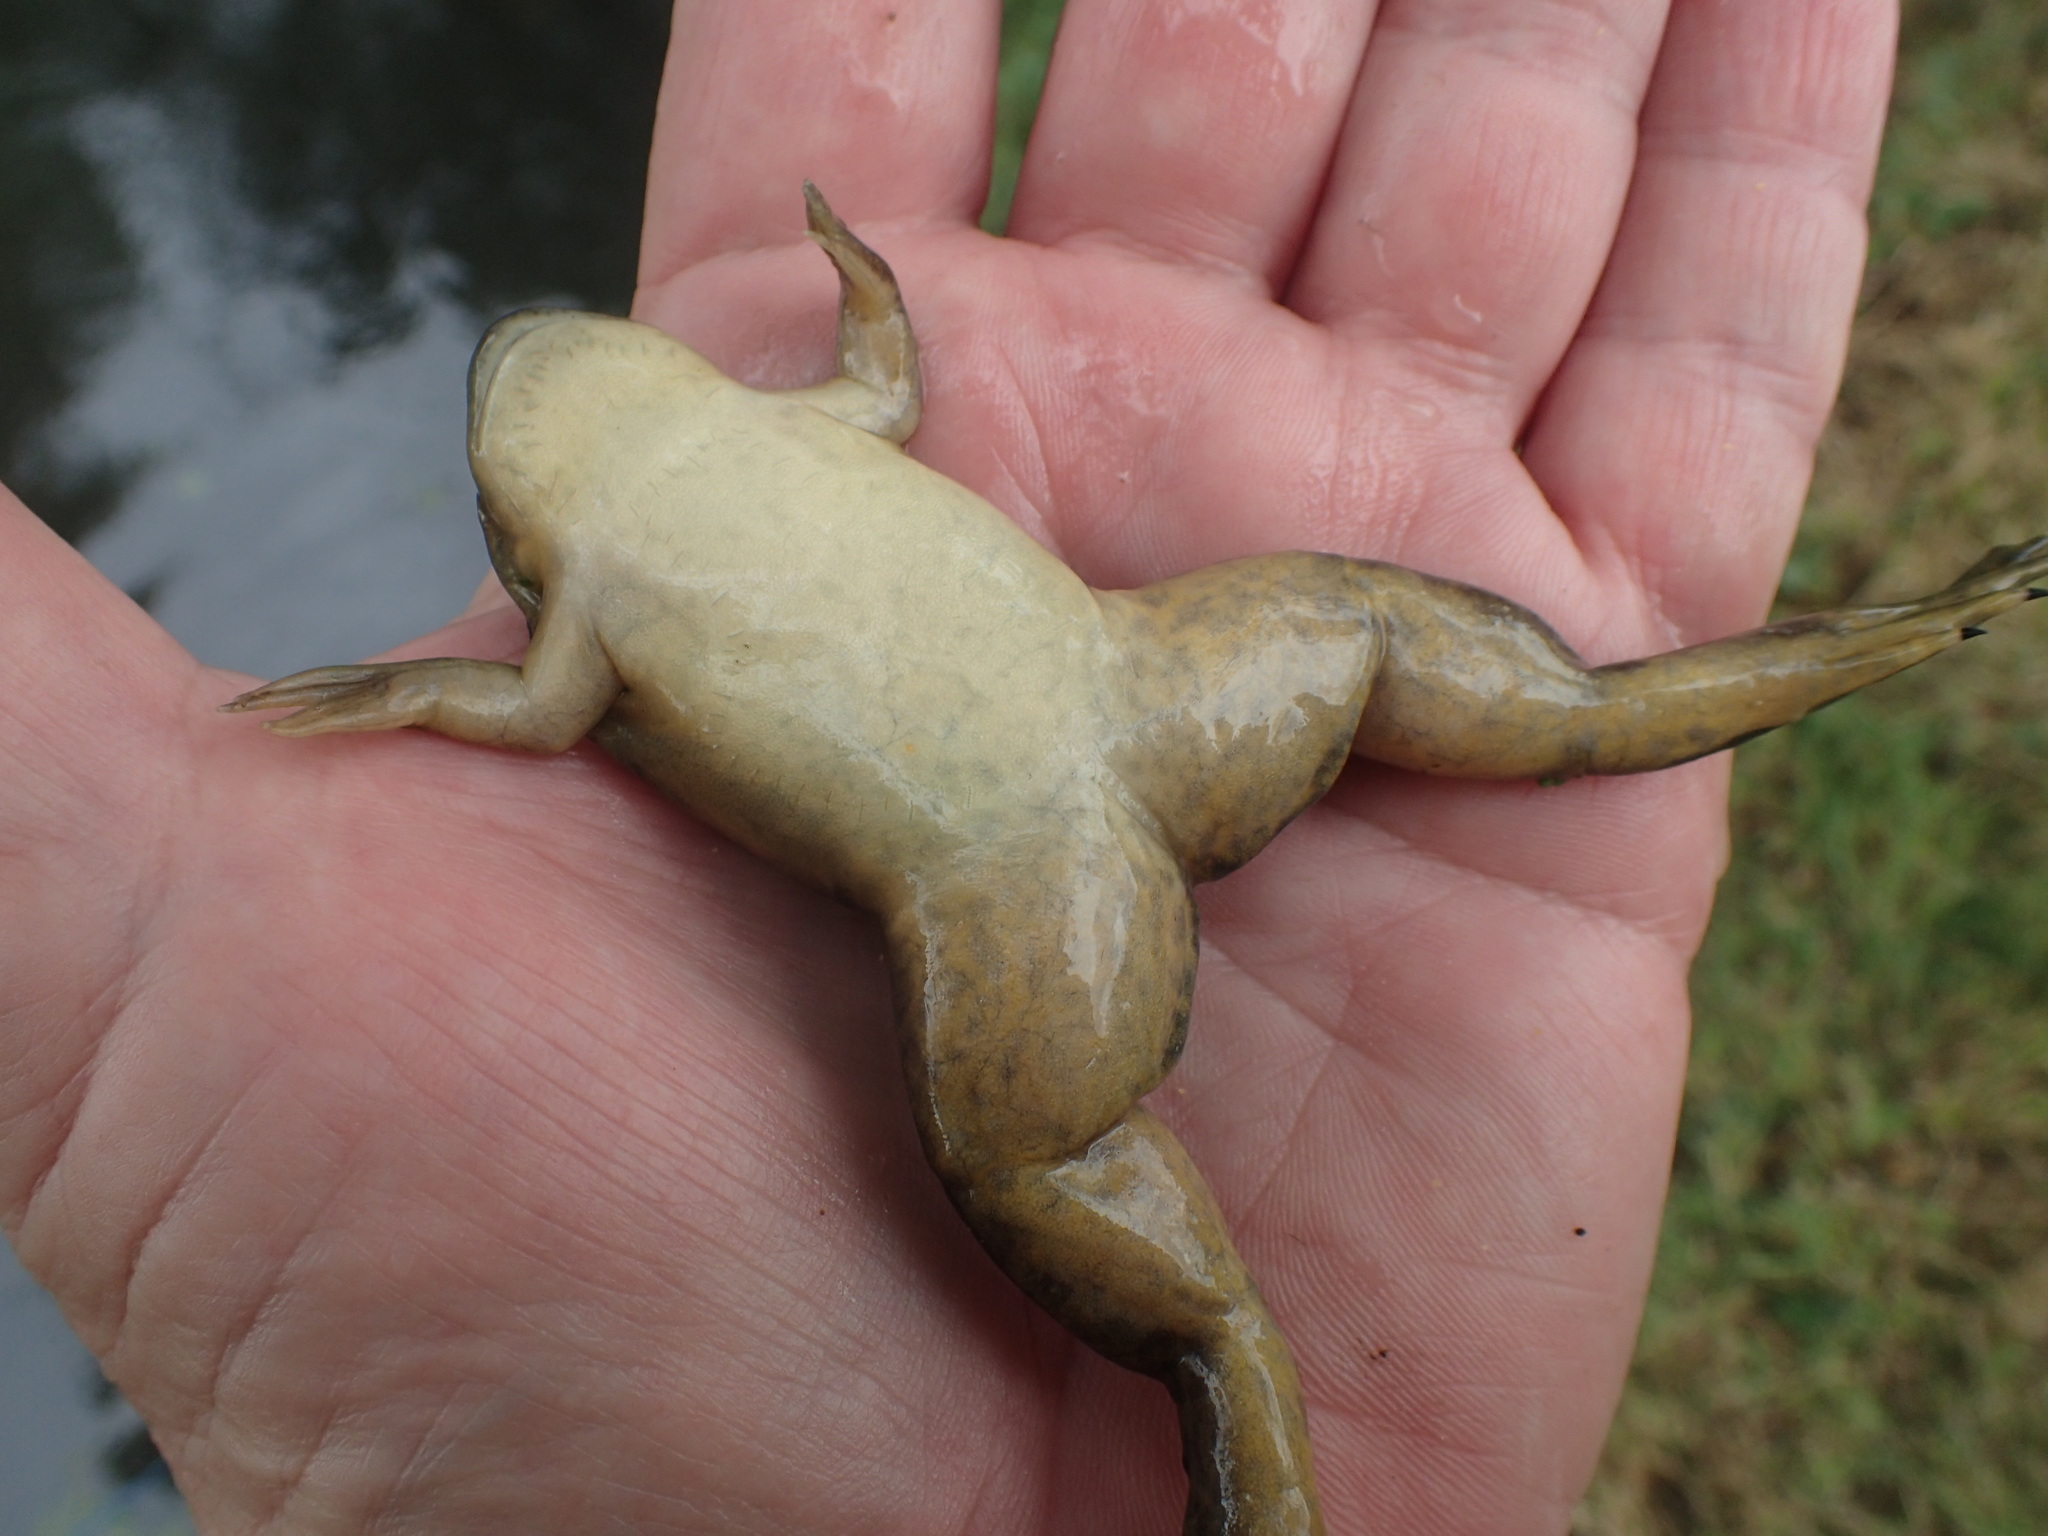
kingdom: Animalia
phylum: Chordata
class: Amphibia
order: Anura
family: Pipidae
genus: Xenopus
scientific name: Xenopus laevis
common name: African clawed frog
